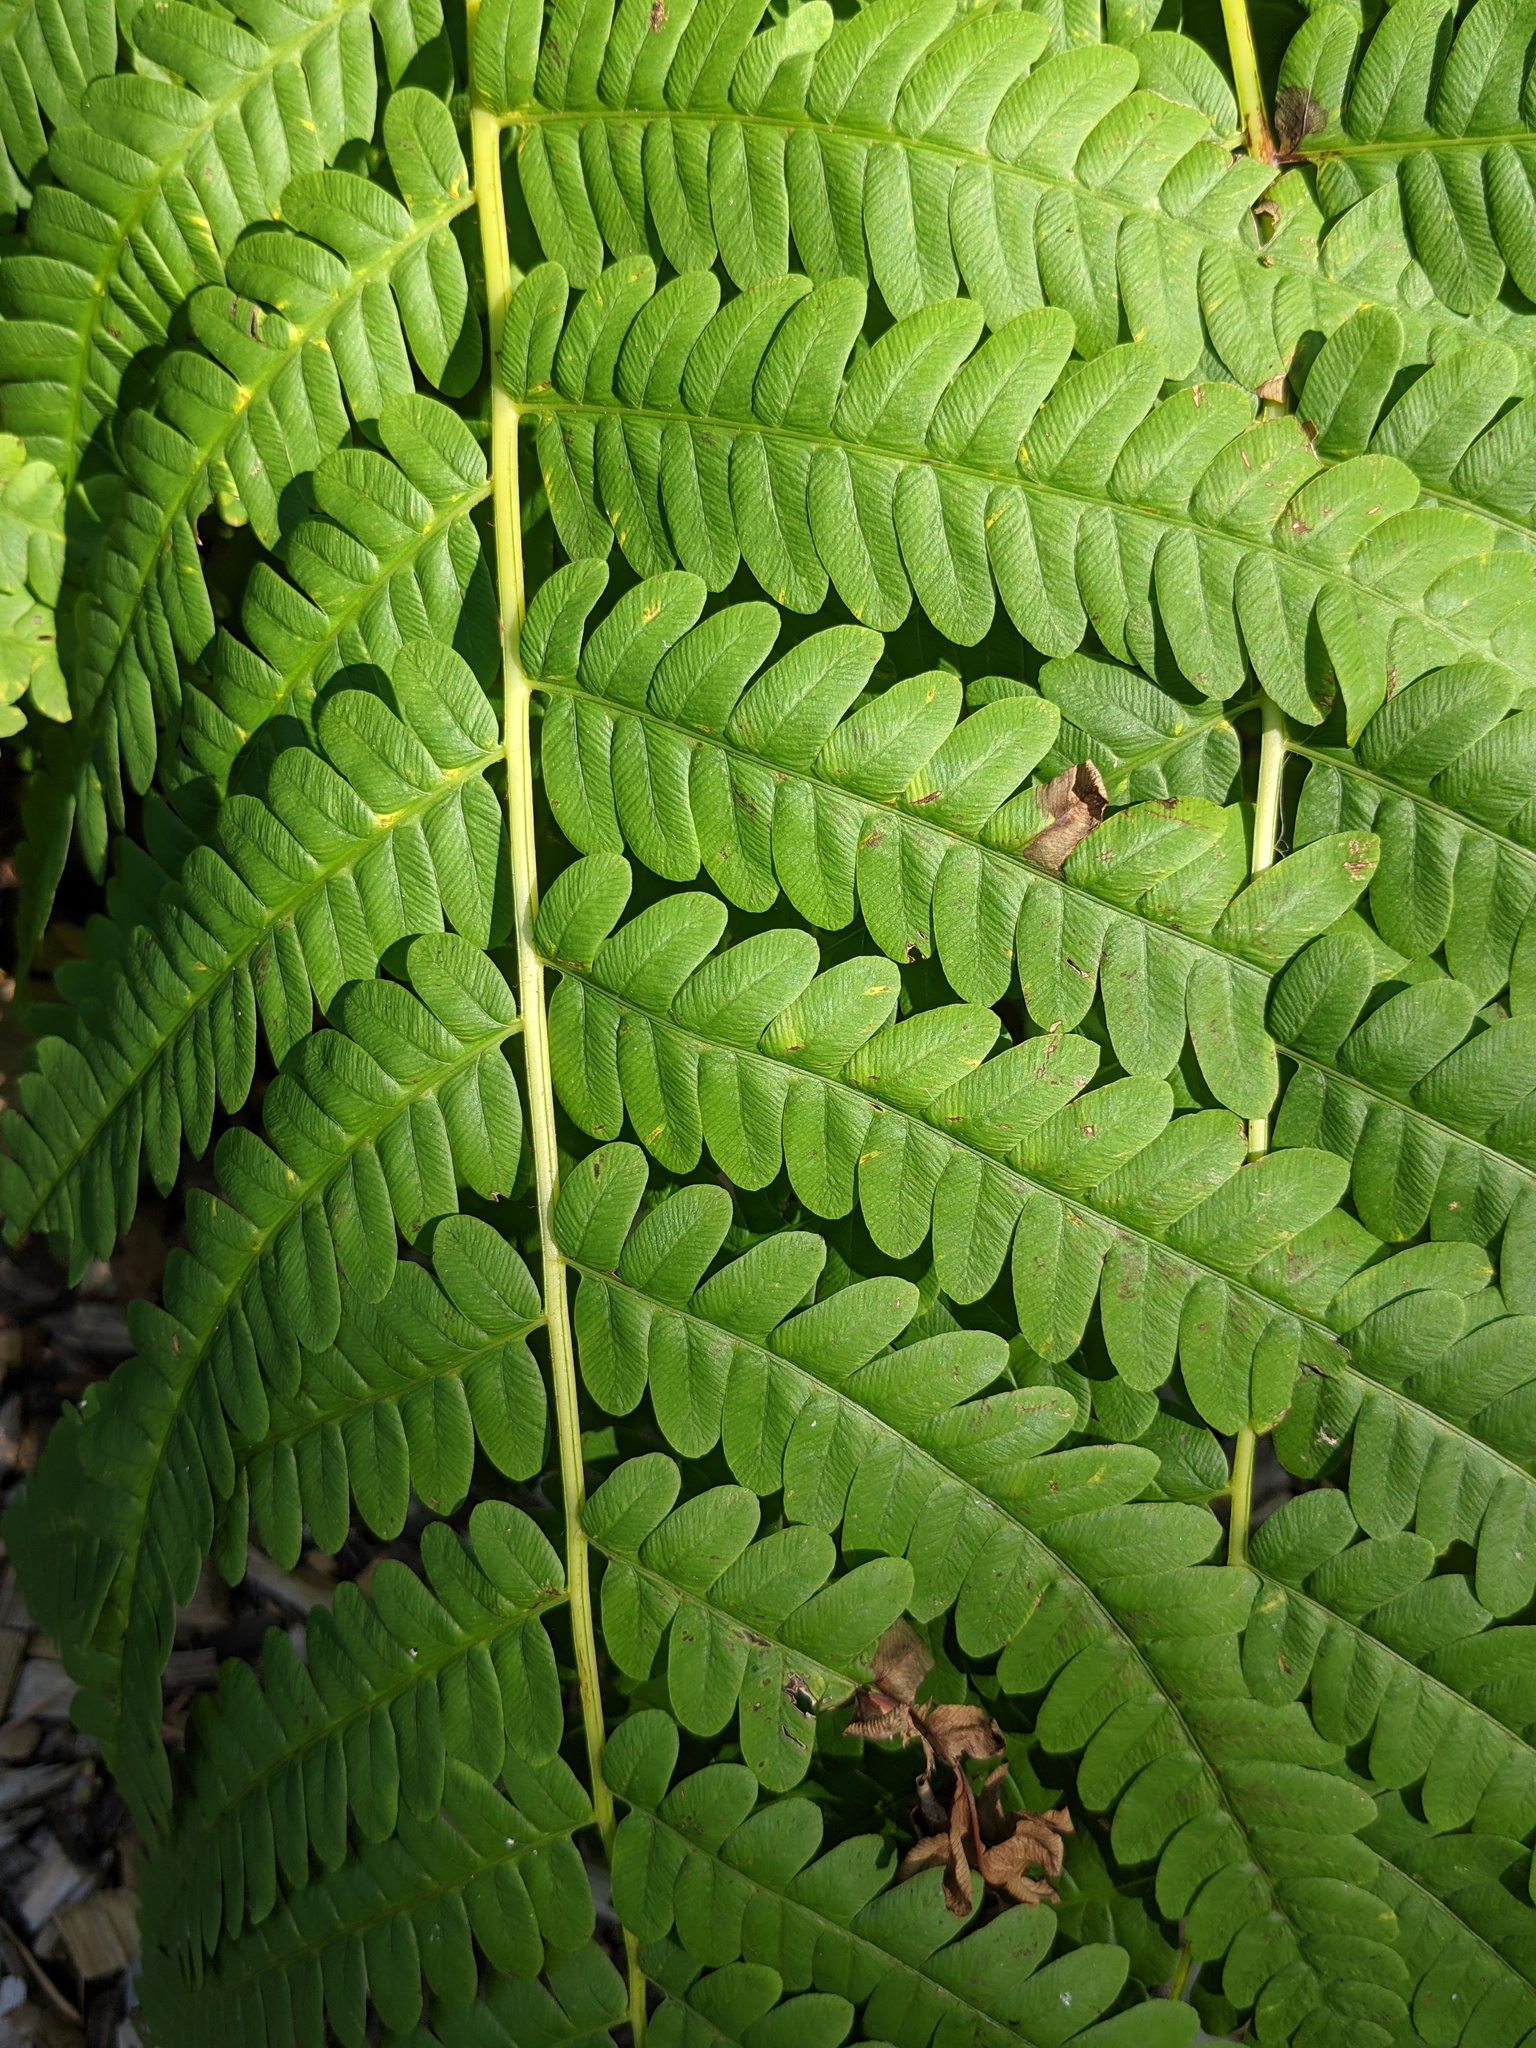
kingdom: Plantae
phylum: Tracheophyta
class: Polypodiopsida
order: Osmundales
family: Osmundaceae
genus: Osmundastrum
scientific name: Osmundastrum cinnamomeum
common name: Cinnamon fern
